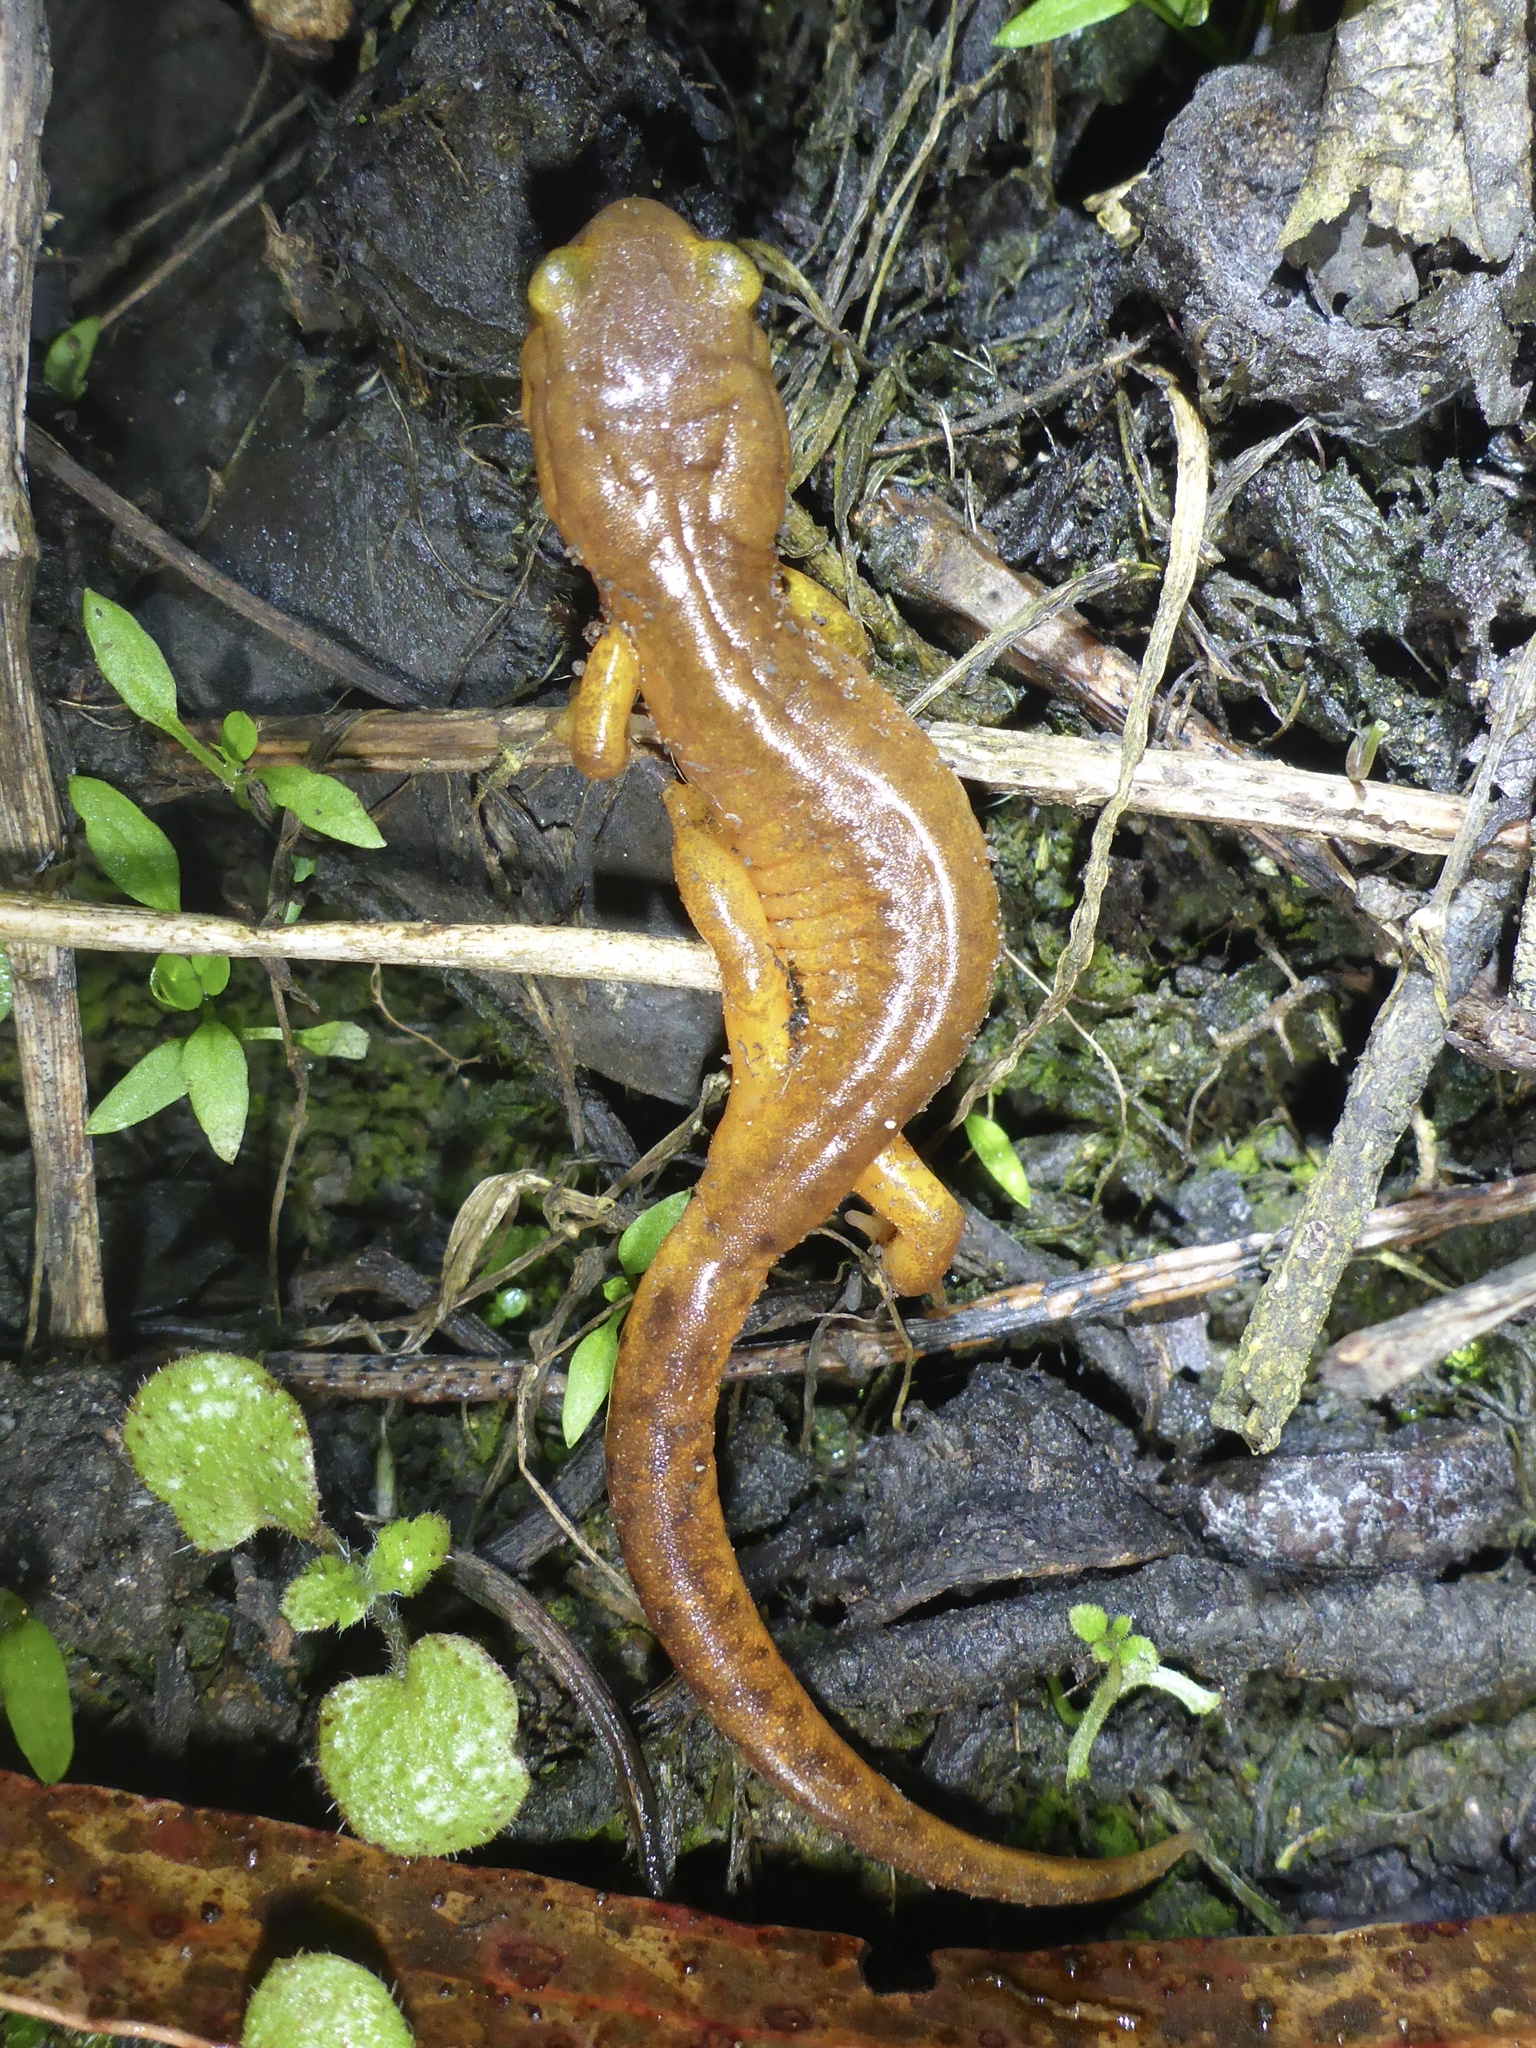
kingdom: Animalia
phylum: Chordata
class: Amphibia
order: Caudata
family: Plethodontidae
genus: Ensatina
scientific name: Ensatina eschscholtzii
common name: Ensatina
